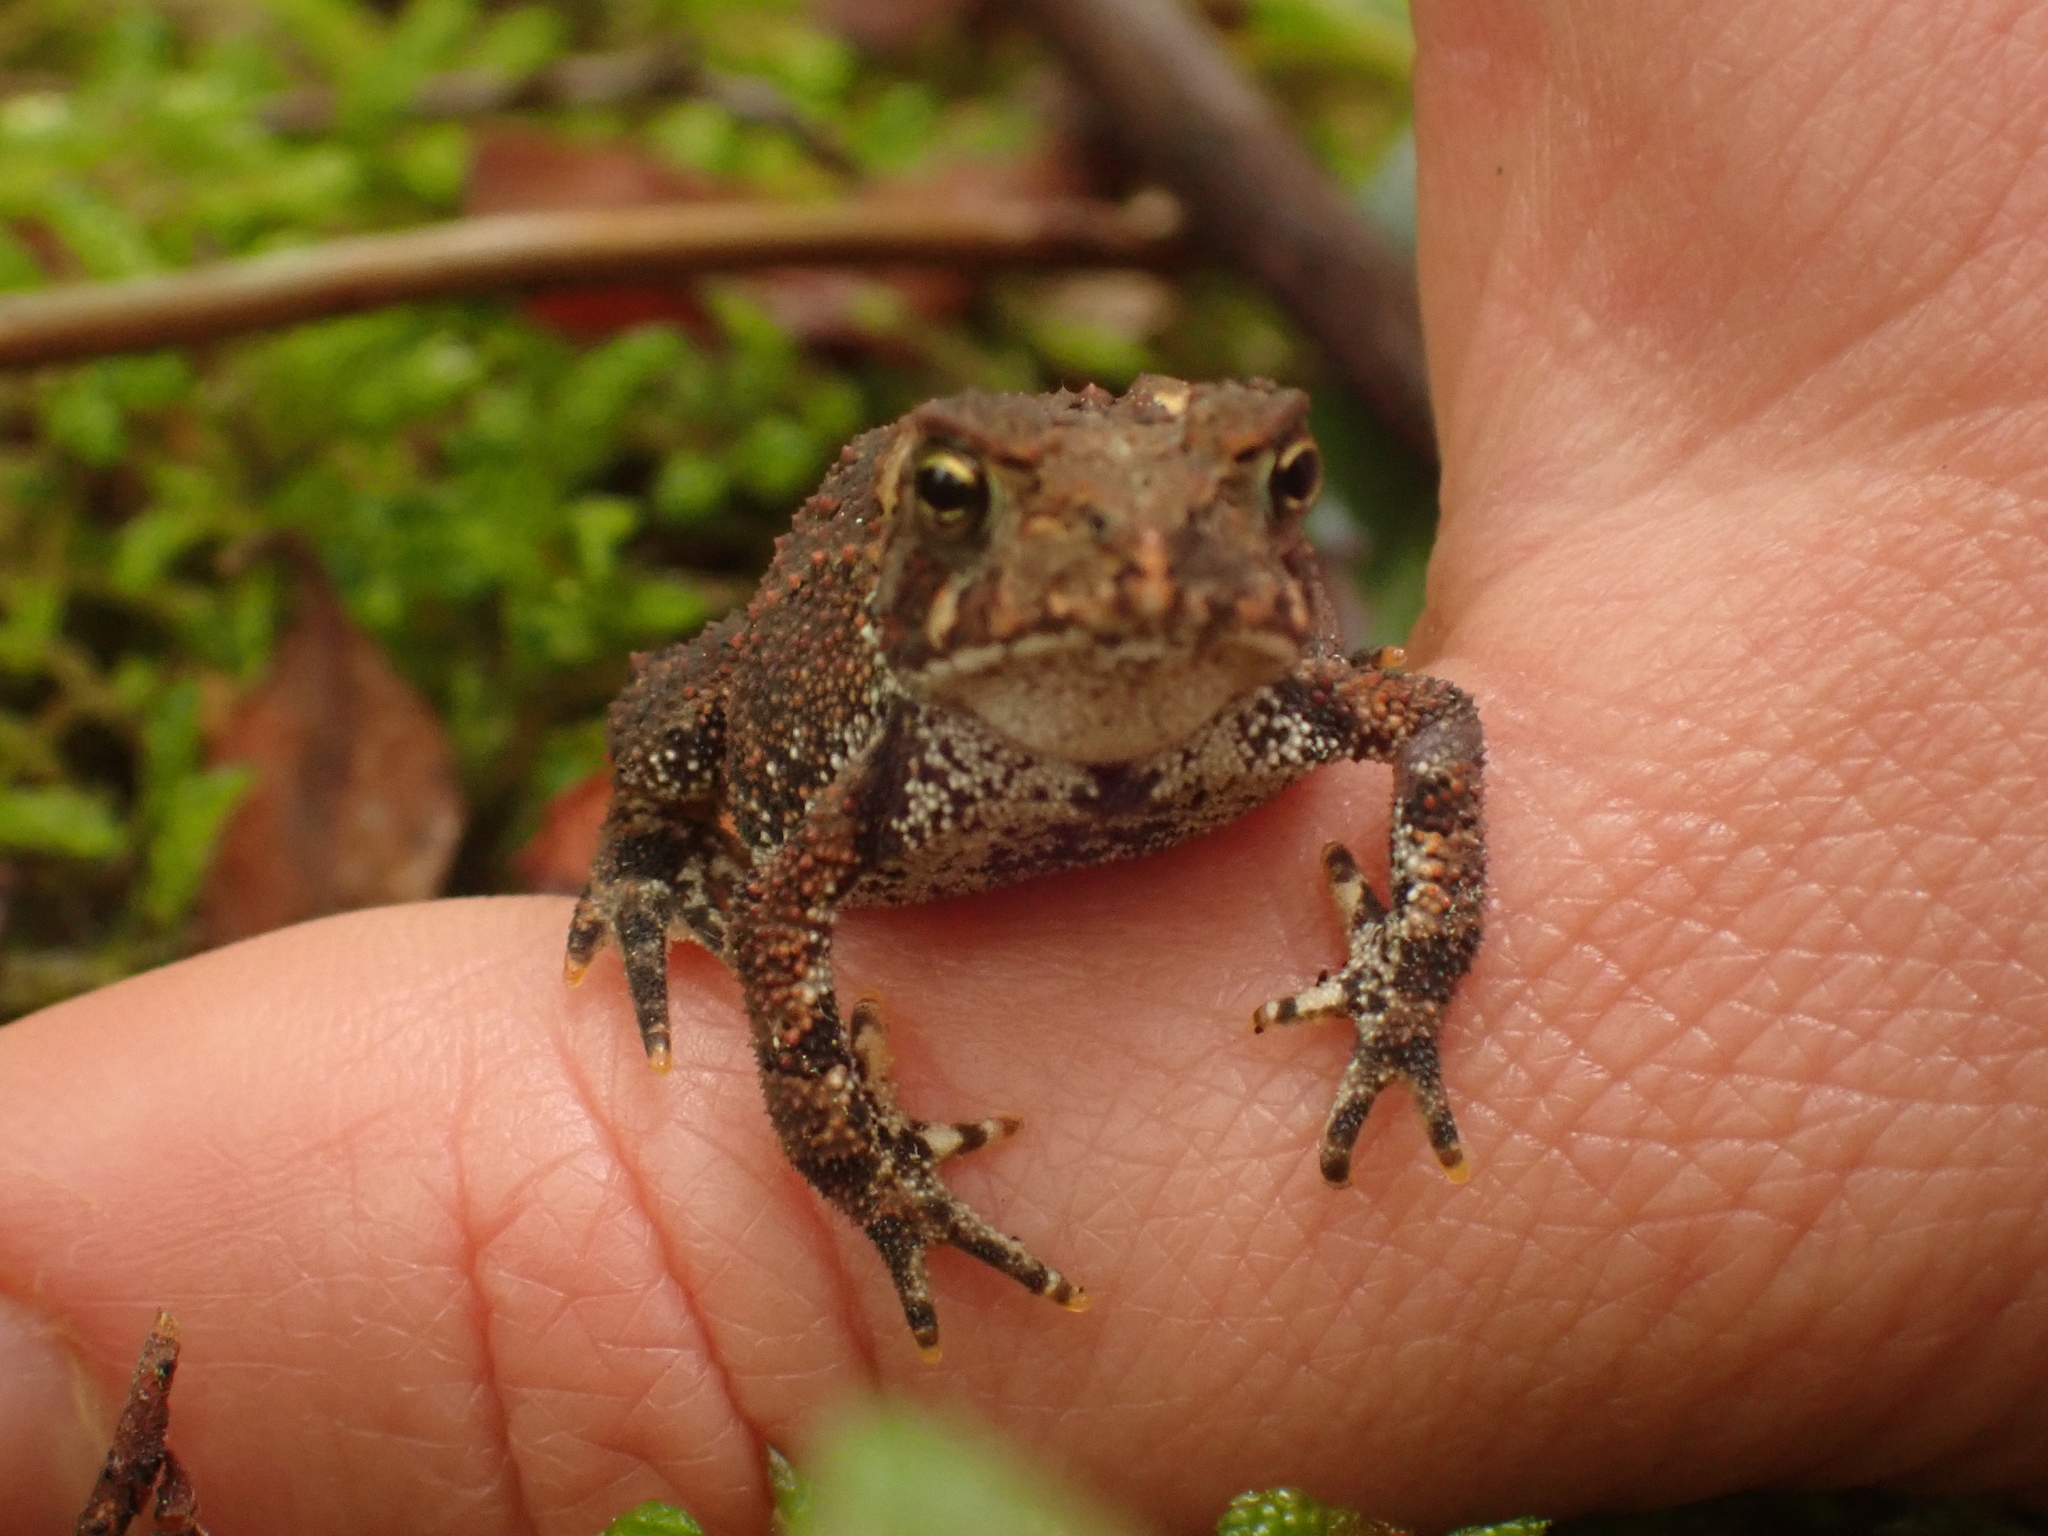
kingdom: Animalia
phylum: Chordata
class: Amphibia
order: Anura
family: Bufonidae
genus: Anaxyrus
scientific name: Anaxyrus americanus
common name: American toad
